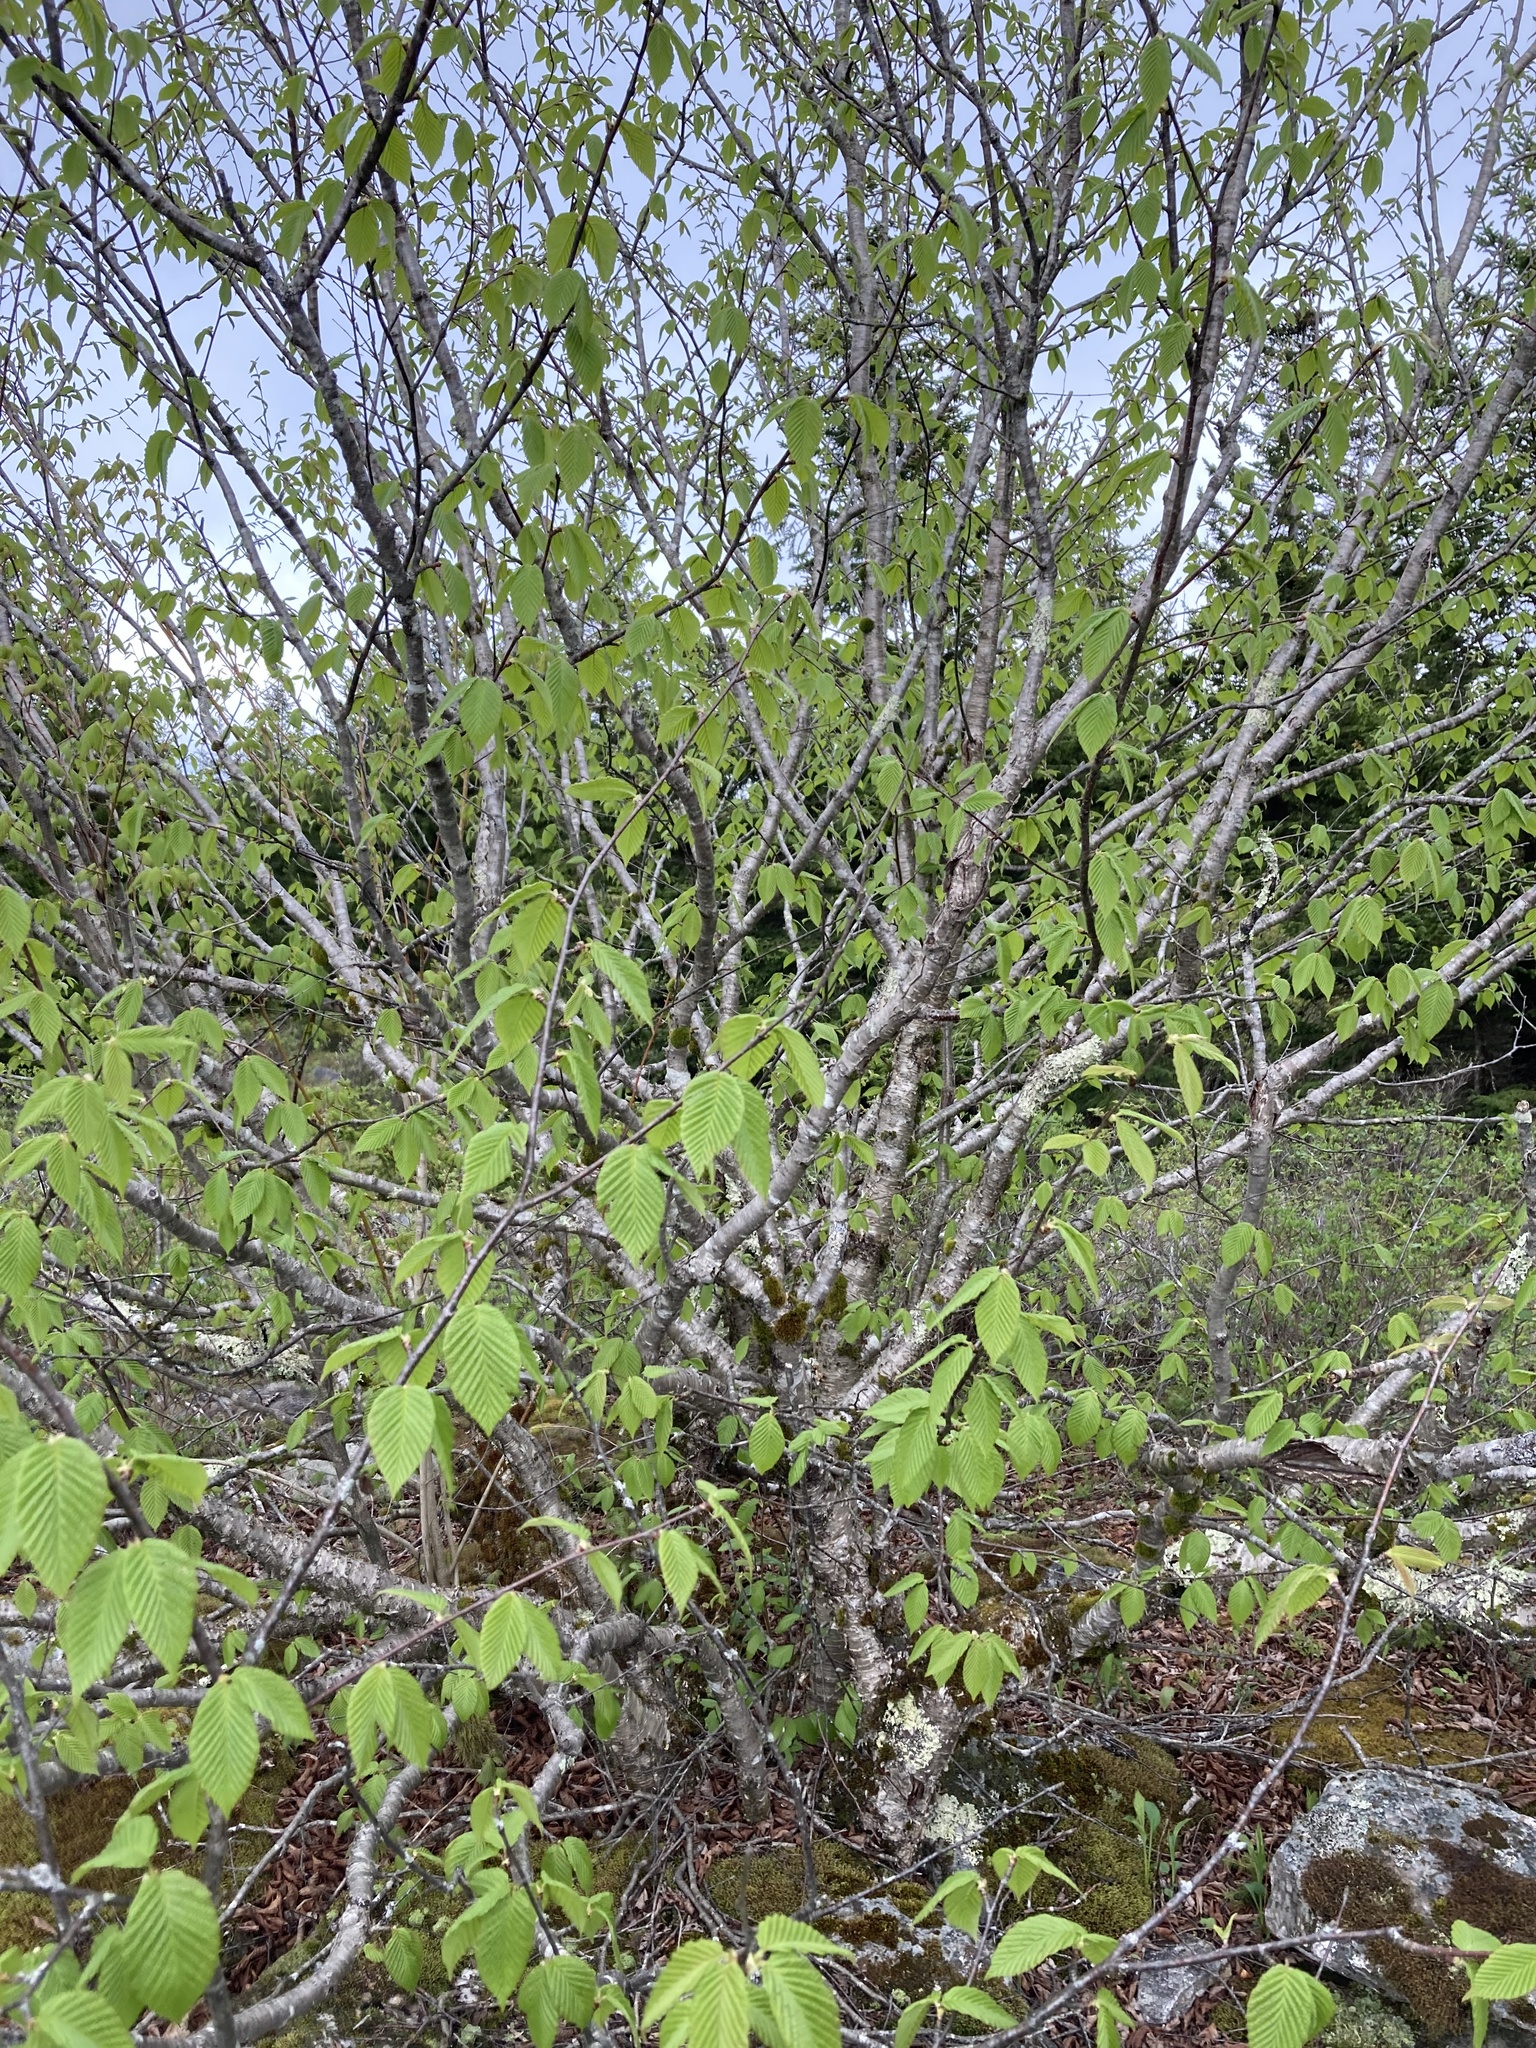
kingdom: Plantae
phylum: Tracheophyta
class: Magnoliopsida
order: Fagales
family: Betulaceae
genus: Betula
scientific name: Betula lenta
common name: Black birch
